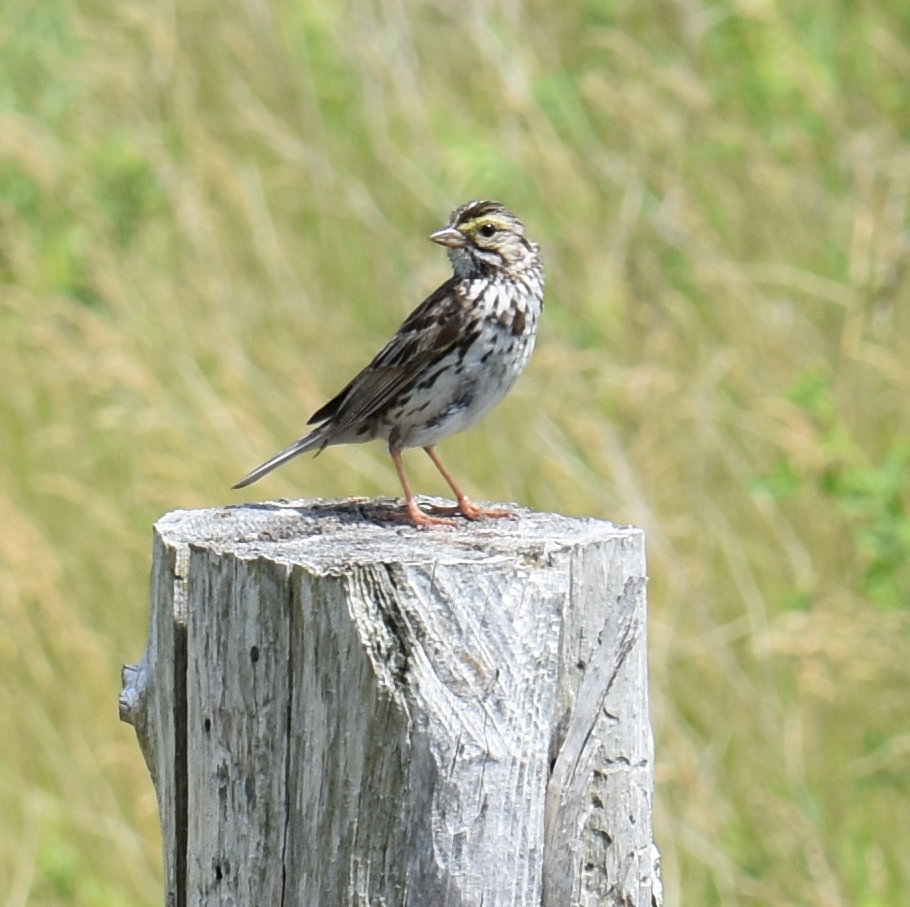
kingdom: Animalia
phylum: Chordata
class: Aves
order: Passeriformes
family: Passerellidae
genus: Passerculus
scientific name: Passerculus sandwichensis
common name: Savannah sparrow
